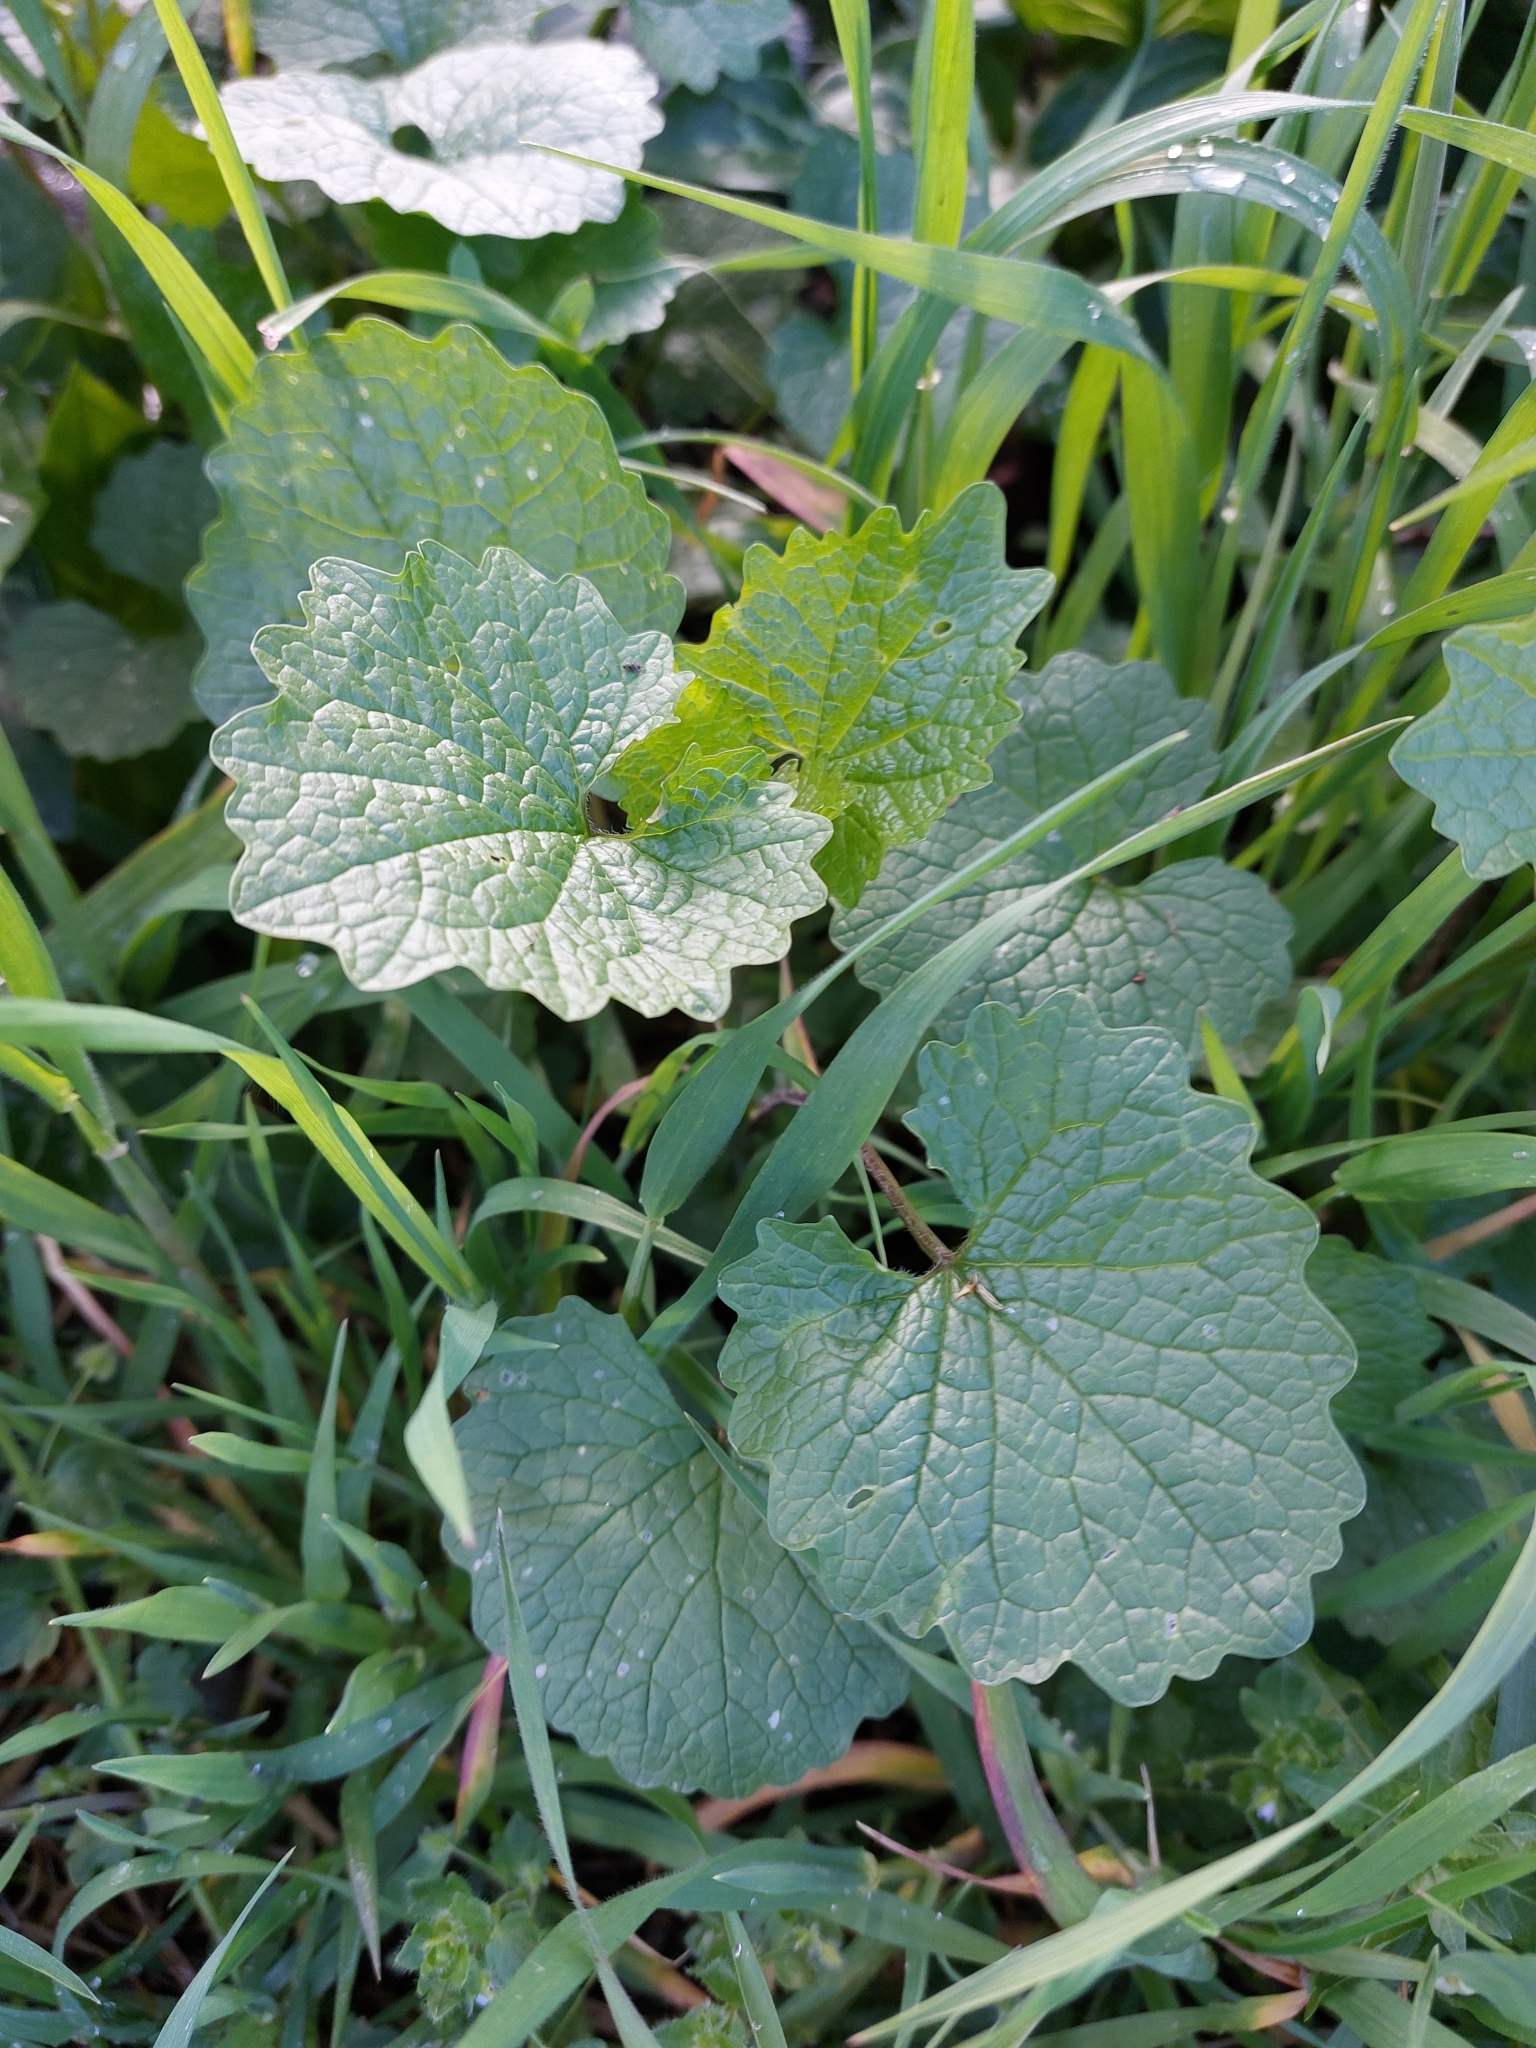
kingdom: Plantae
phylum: Tracheophyta
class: Magnoliopsida
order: Brassicales
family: Brassicaceae
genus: Alliaria
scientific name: Alliaria petiolata
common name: Garlic mustard
